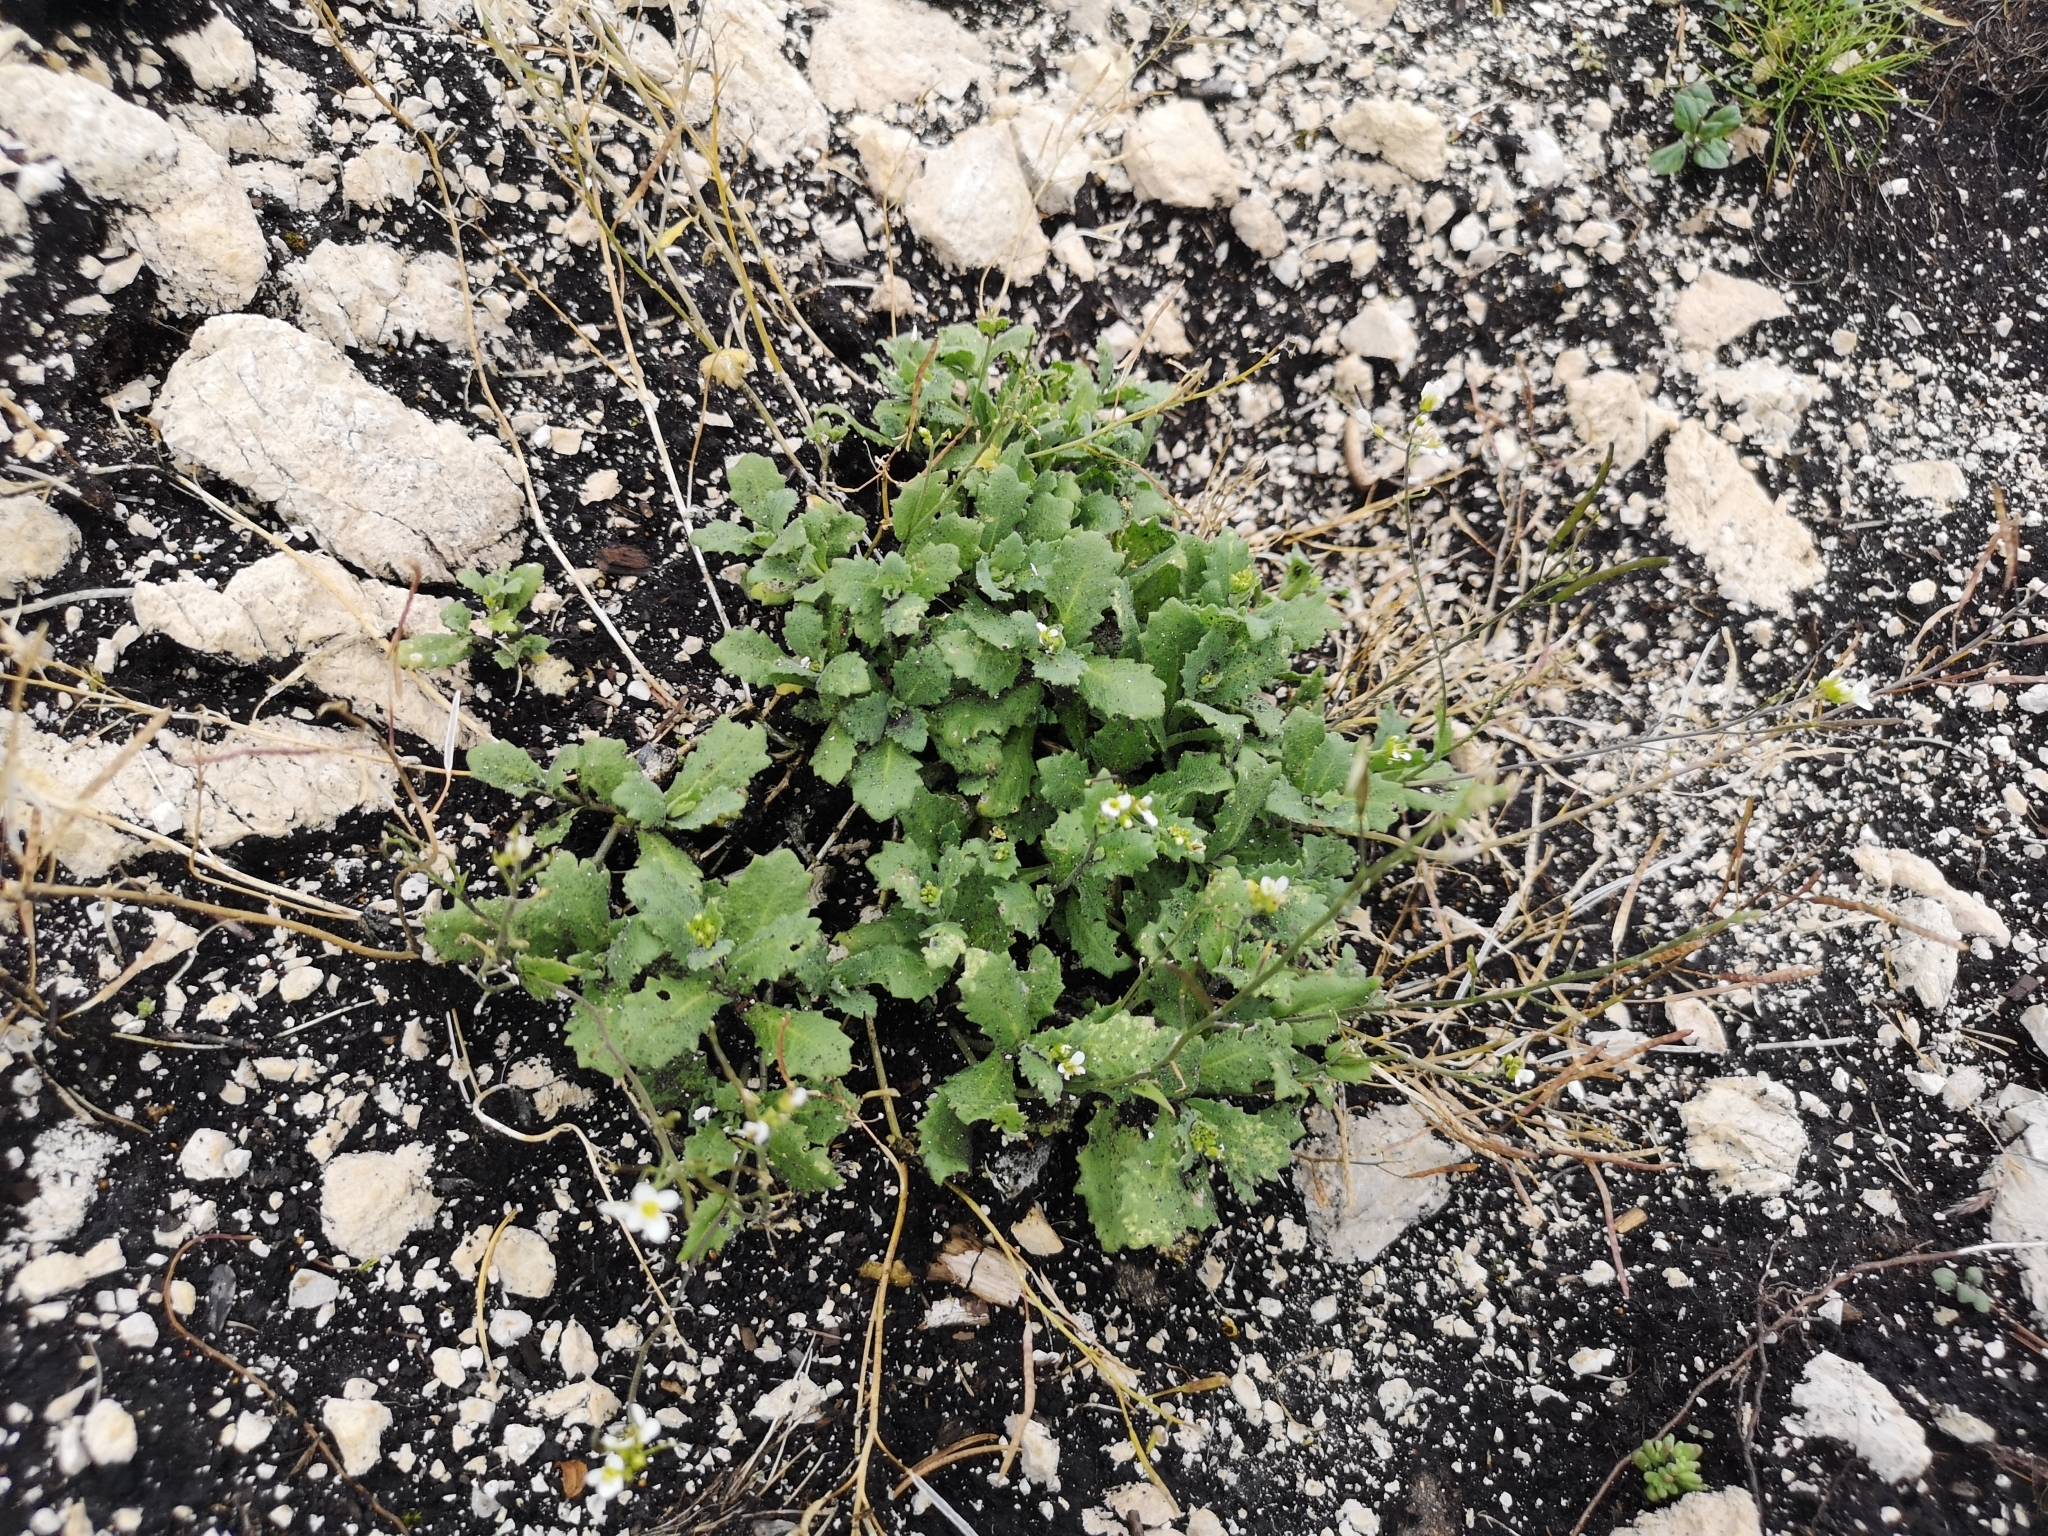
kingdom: Plantae
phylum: Tracheophyta
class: Magnoliopsida
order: Brassicales
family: Brassicaceae
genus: Arabis
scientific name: Arabis alpina
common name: Alpine rock-cress
